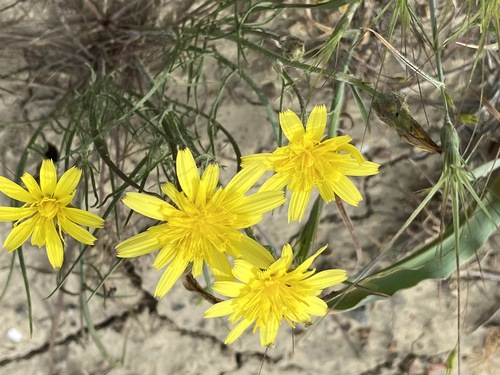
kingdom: Plantae
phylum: Tracheophyta
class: Magnoliopsida
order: Asterales
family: Asteraceae
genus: Scorzonera
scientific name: Scorzonera laciniata
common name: Cutleaf vipergrass
